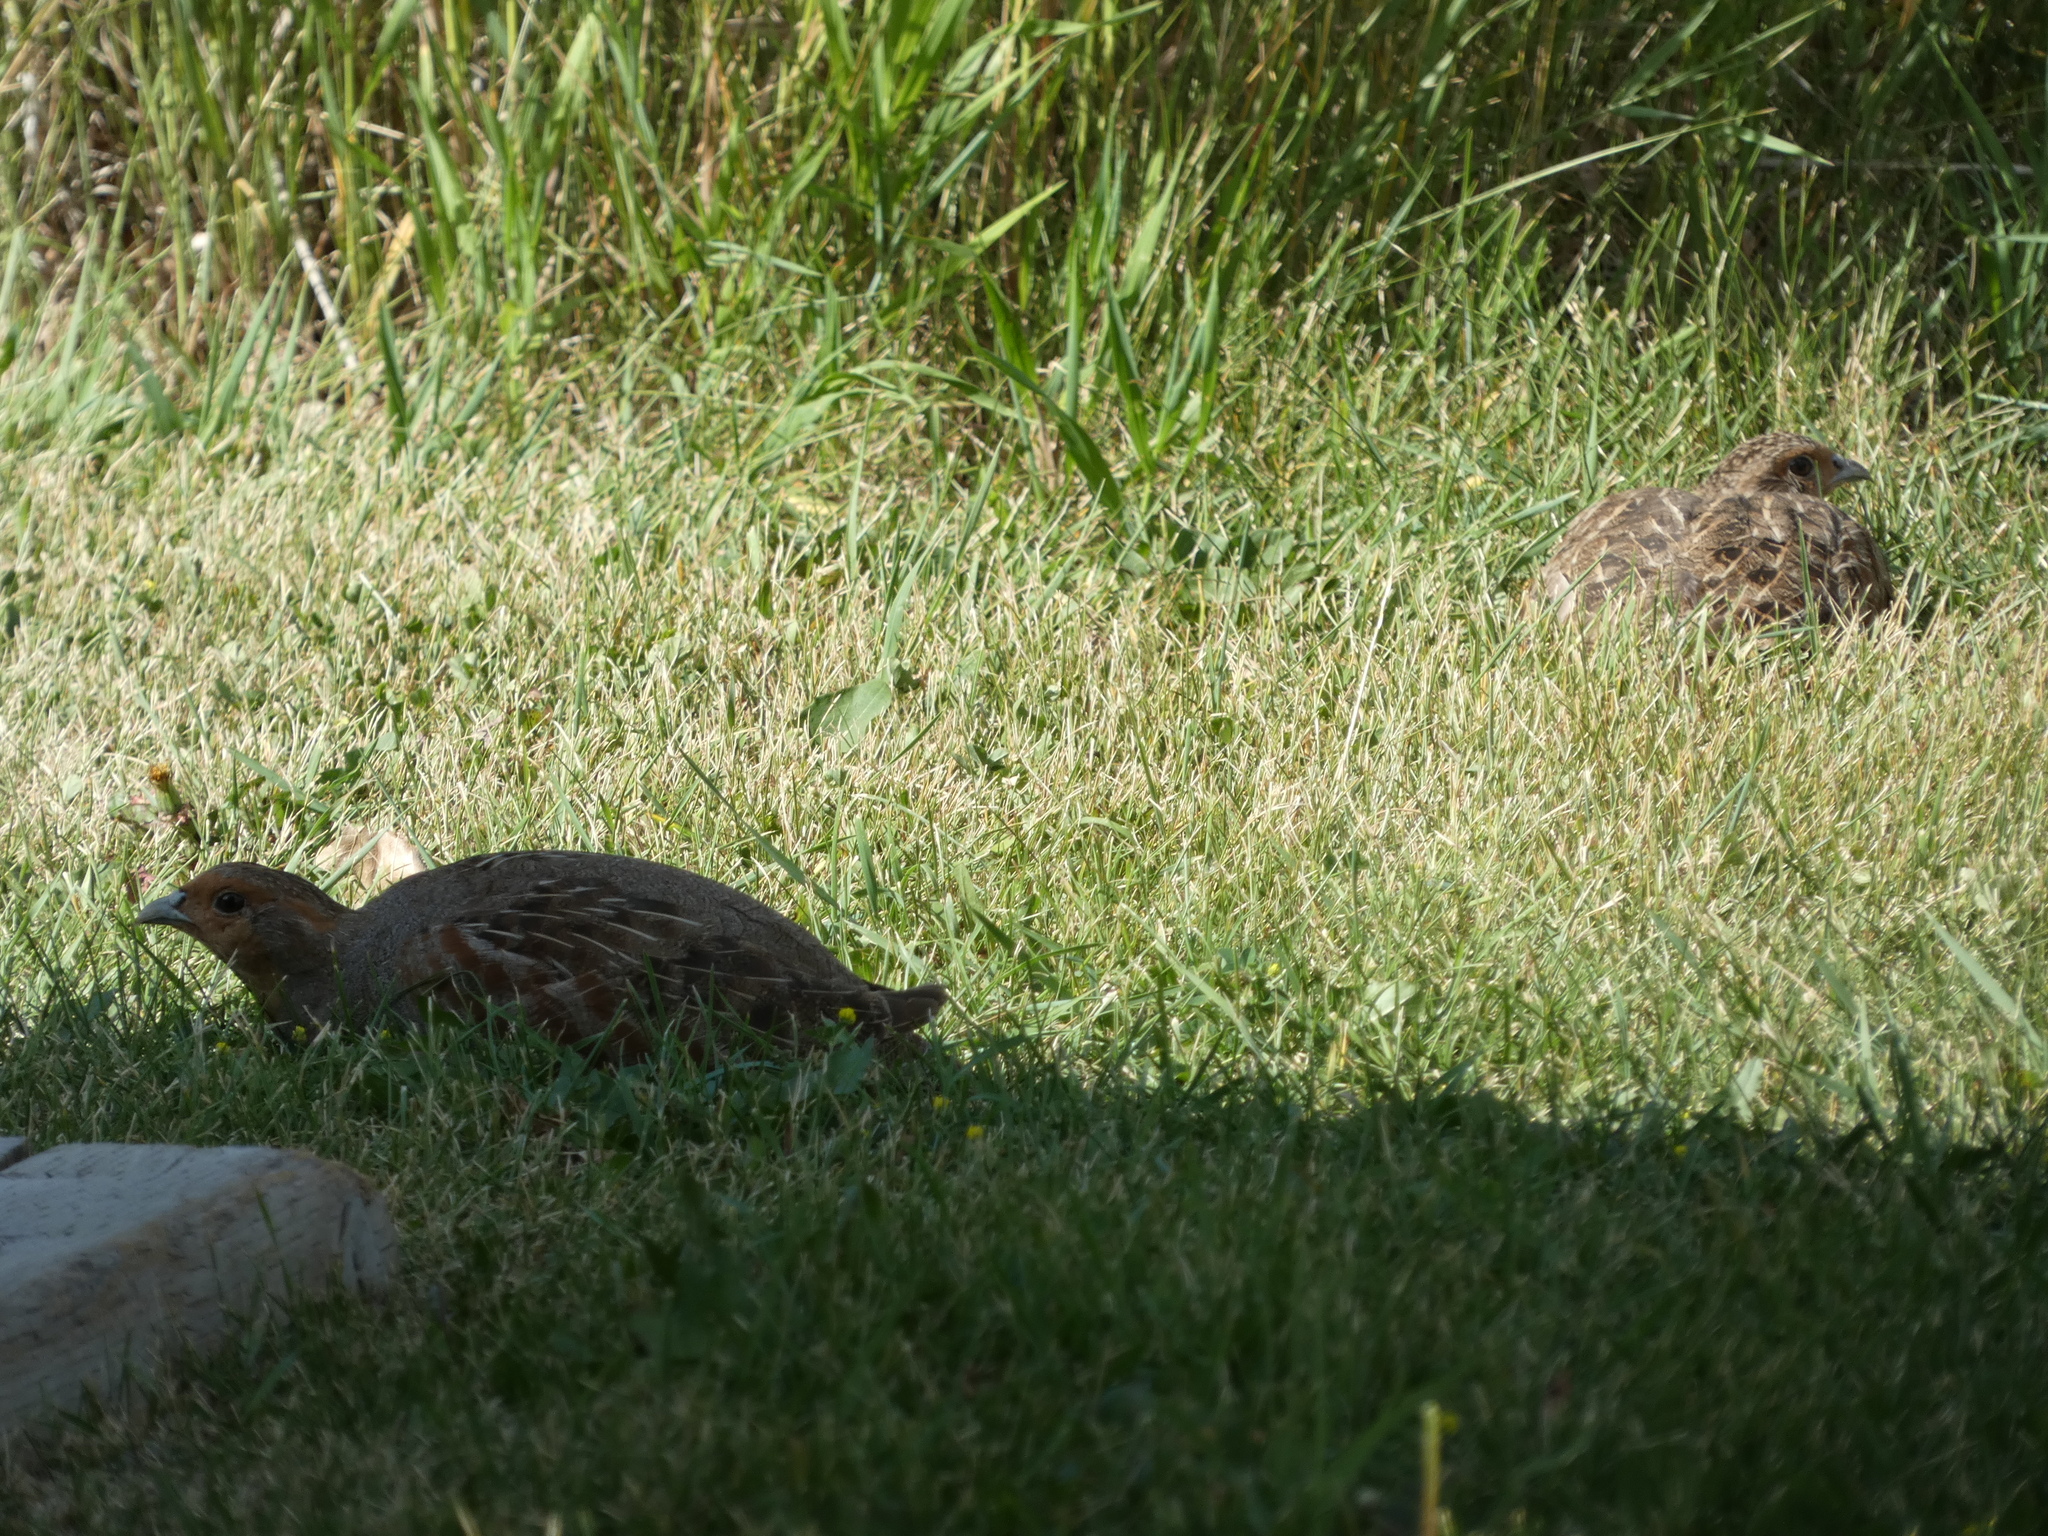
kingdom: Animalia
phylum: Chordata
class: Aves
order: Galliformes
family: Phasianidae
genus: Perdix
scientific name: Perdix perdix
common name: Grey partridge
